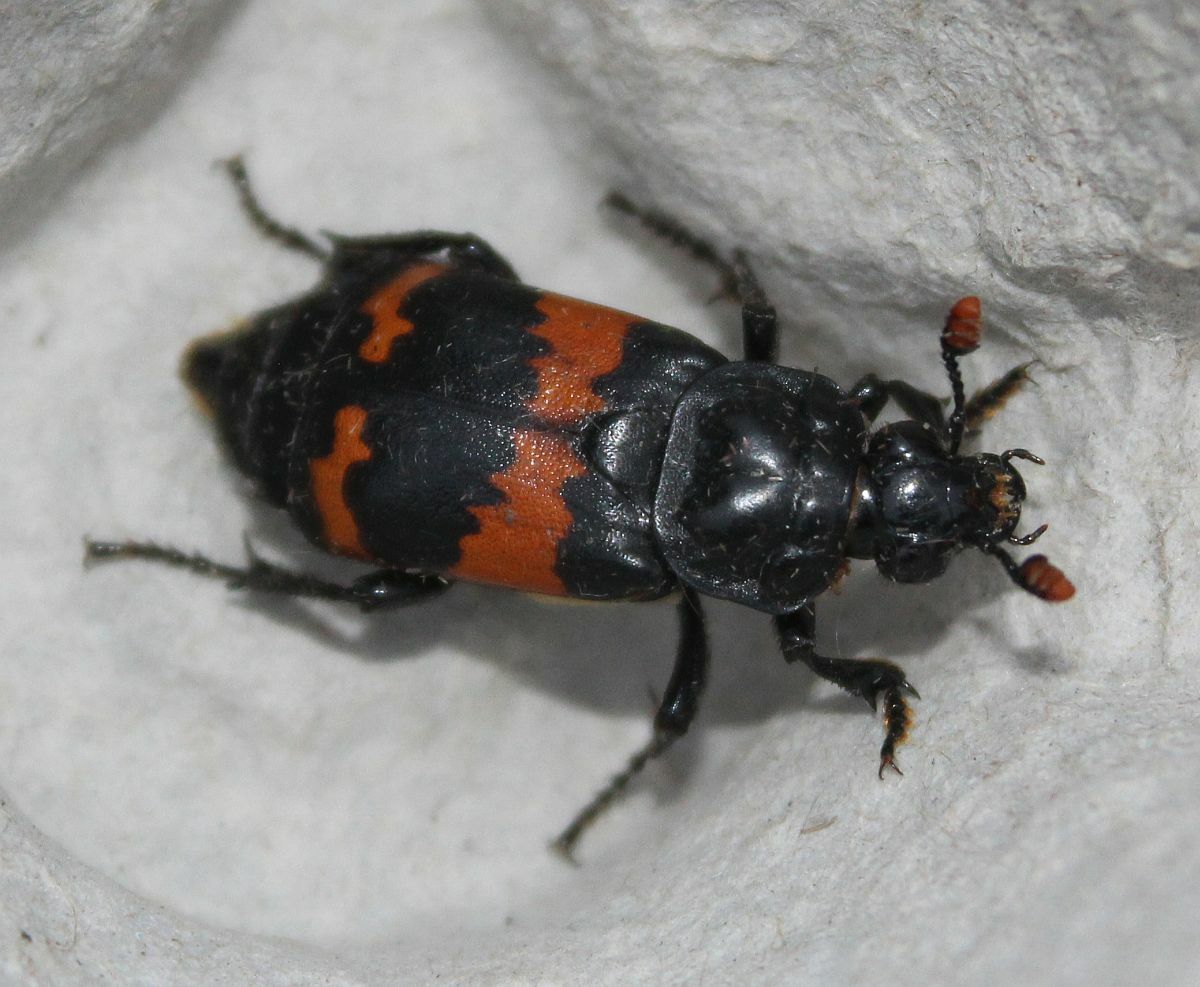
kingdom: Animalia
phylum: Arthropoda
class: Insecta
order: Coleoptera
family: Staphylinidae
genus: Nicrophorus
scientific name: Nicrophorus investigator
